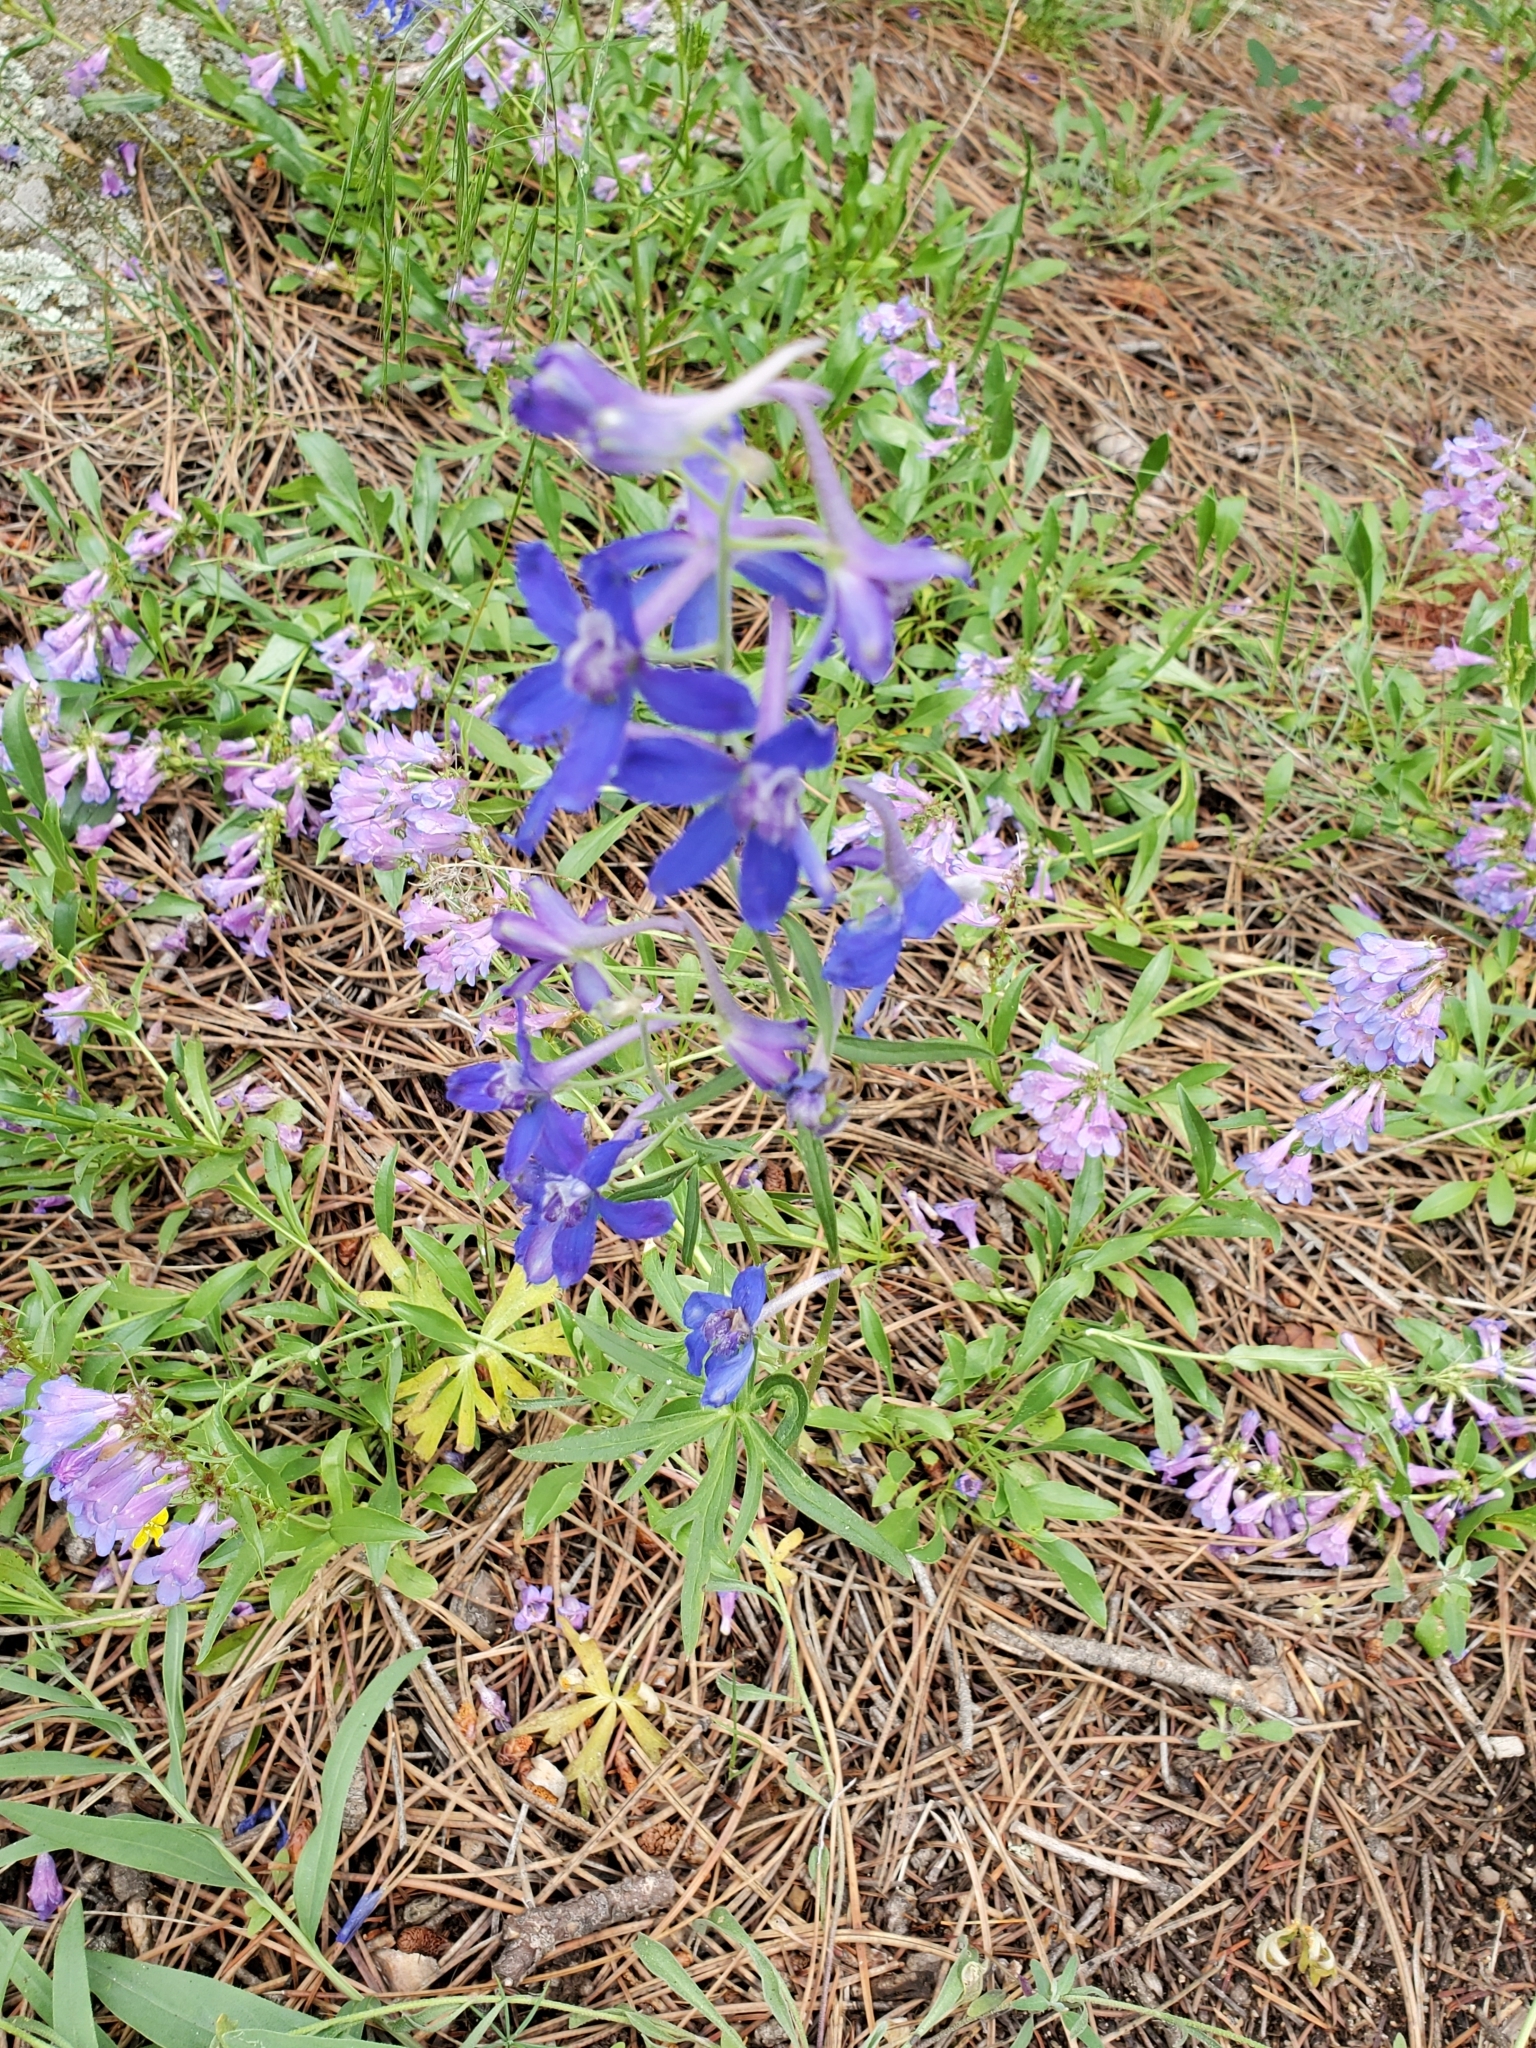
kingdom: Plantae
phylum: Tracheophyta
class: Magnoliopsida
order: Ranunculales
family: Ranunculaceae
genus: Delphinium
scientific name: Delphinium nuttallianum
